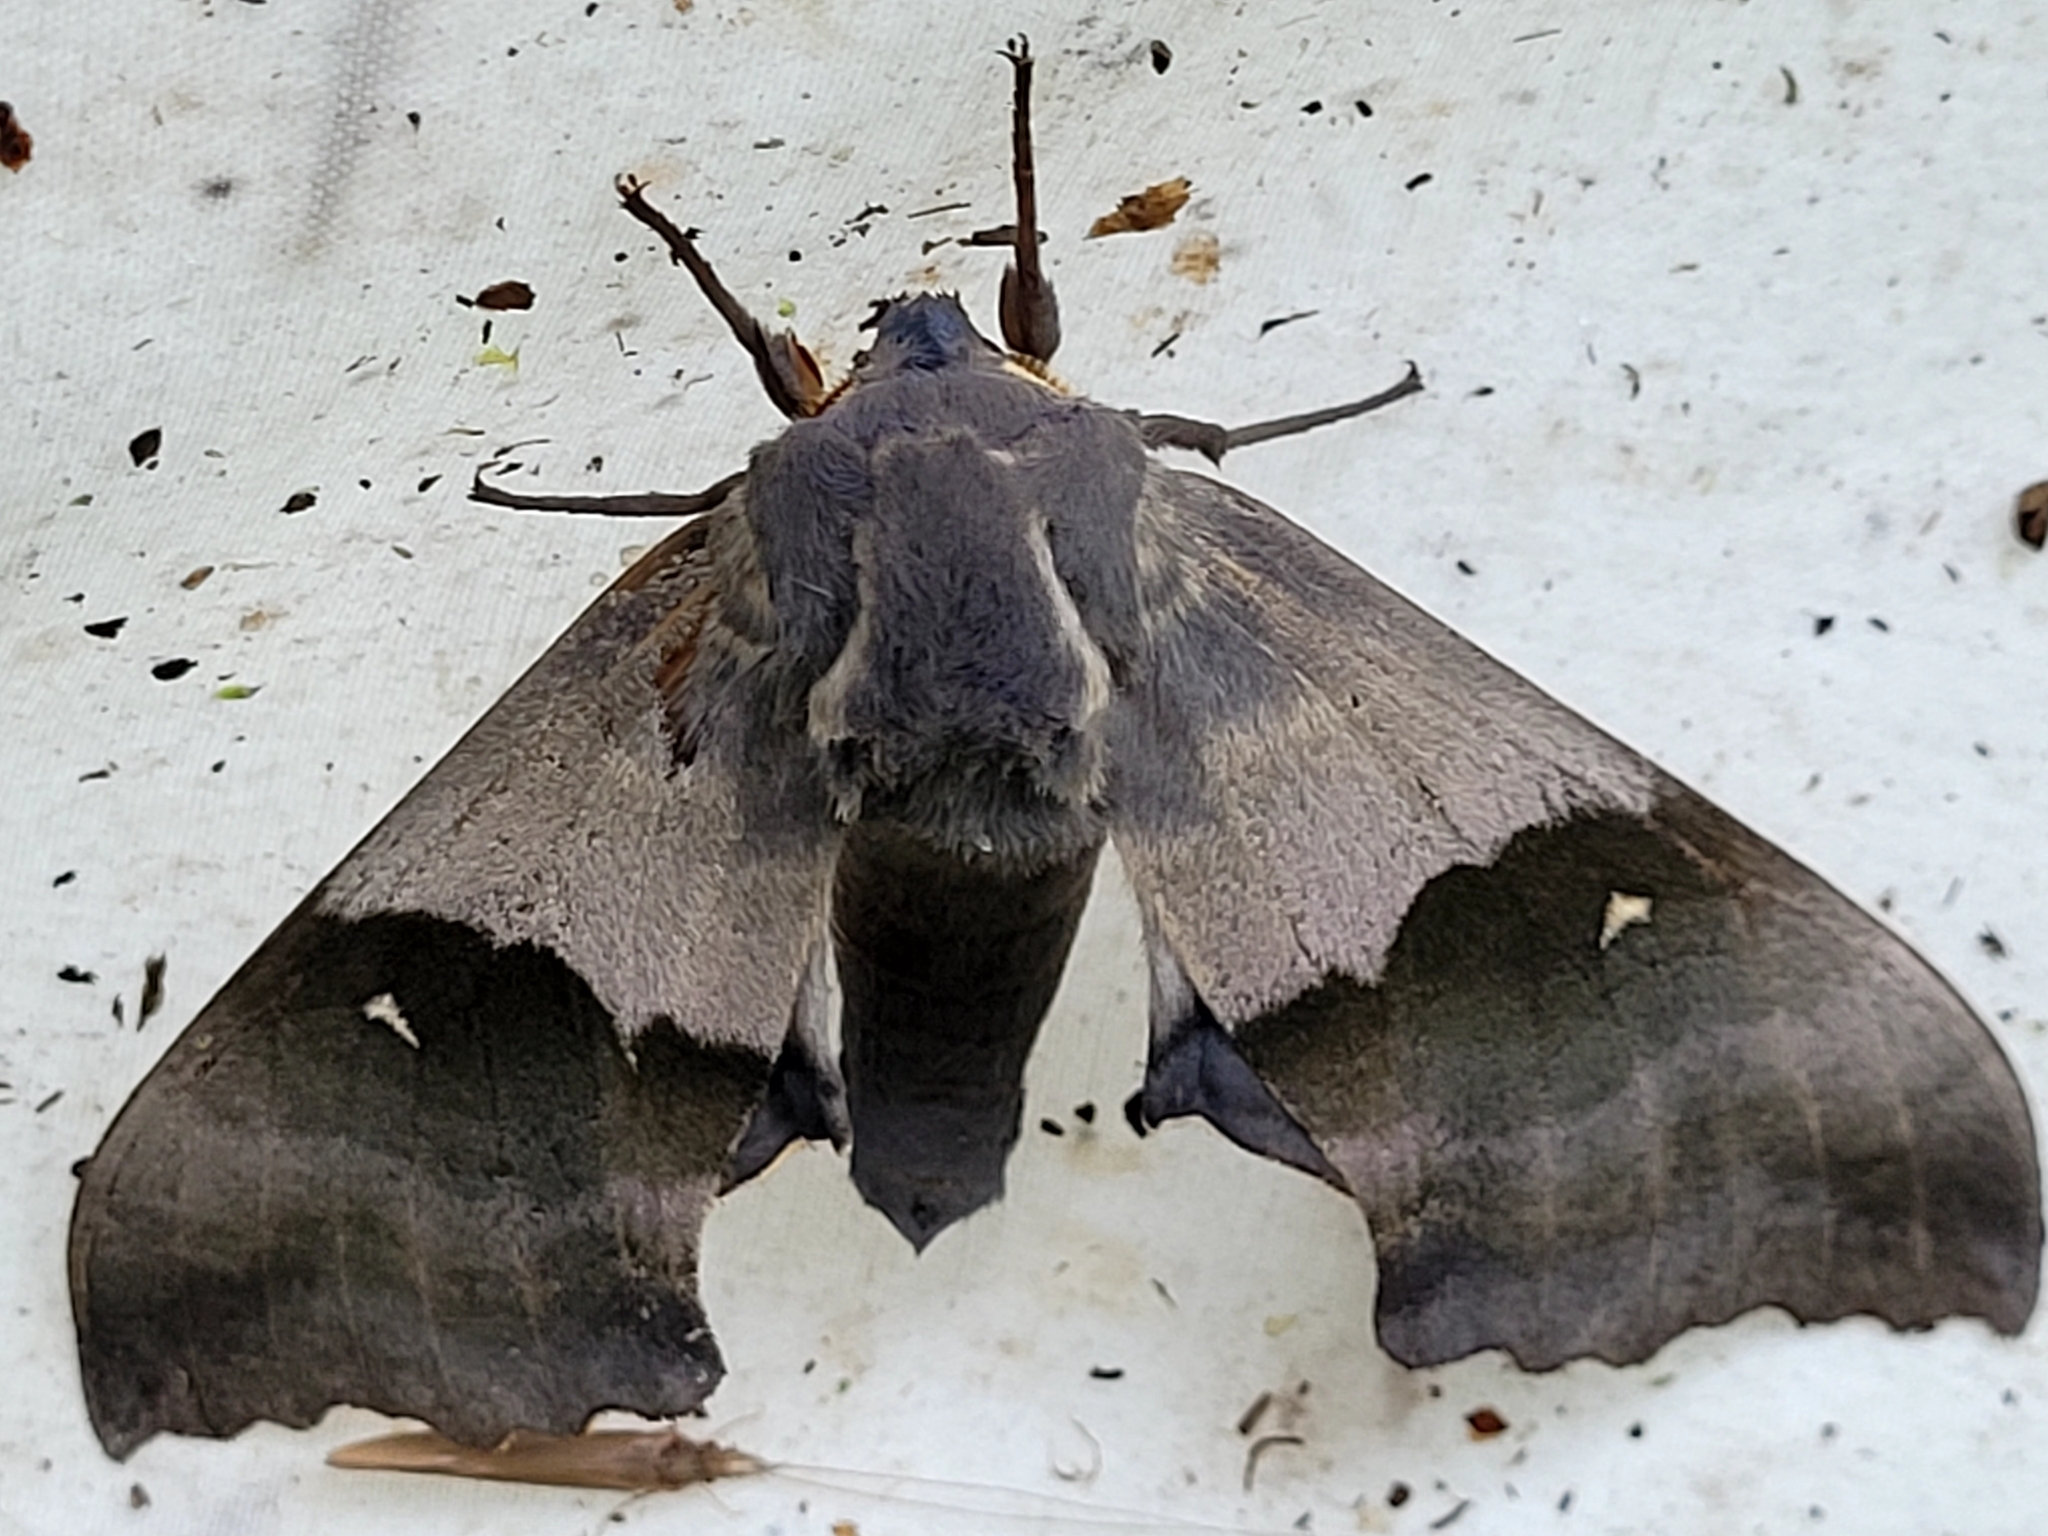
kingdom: Animalia
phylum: Arthropoda
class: Insecta
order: Lepidoptera
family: Sphingidae
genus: Pachysphinx
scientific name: Pachysphinx modesta
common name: Big poplar sphinx
